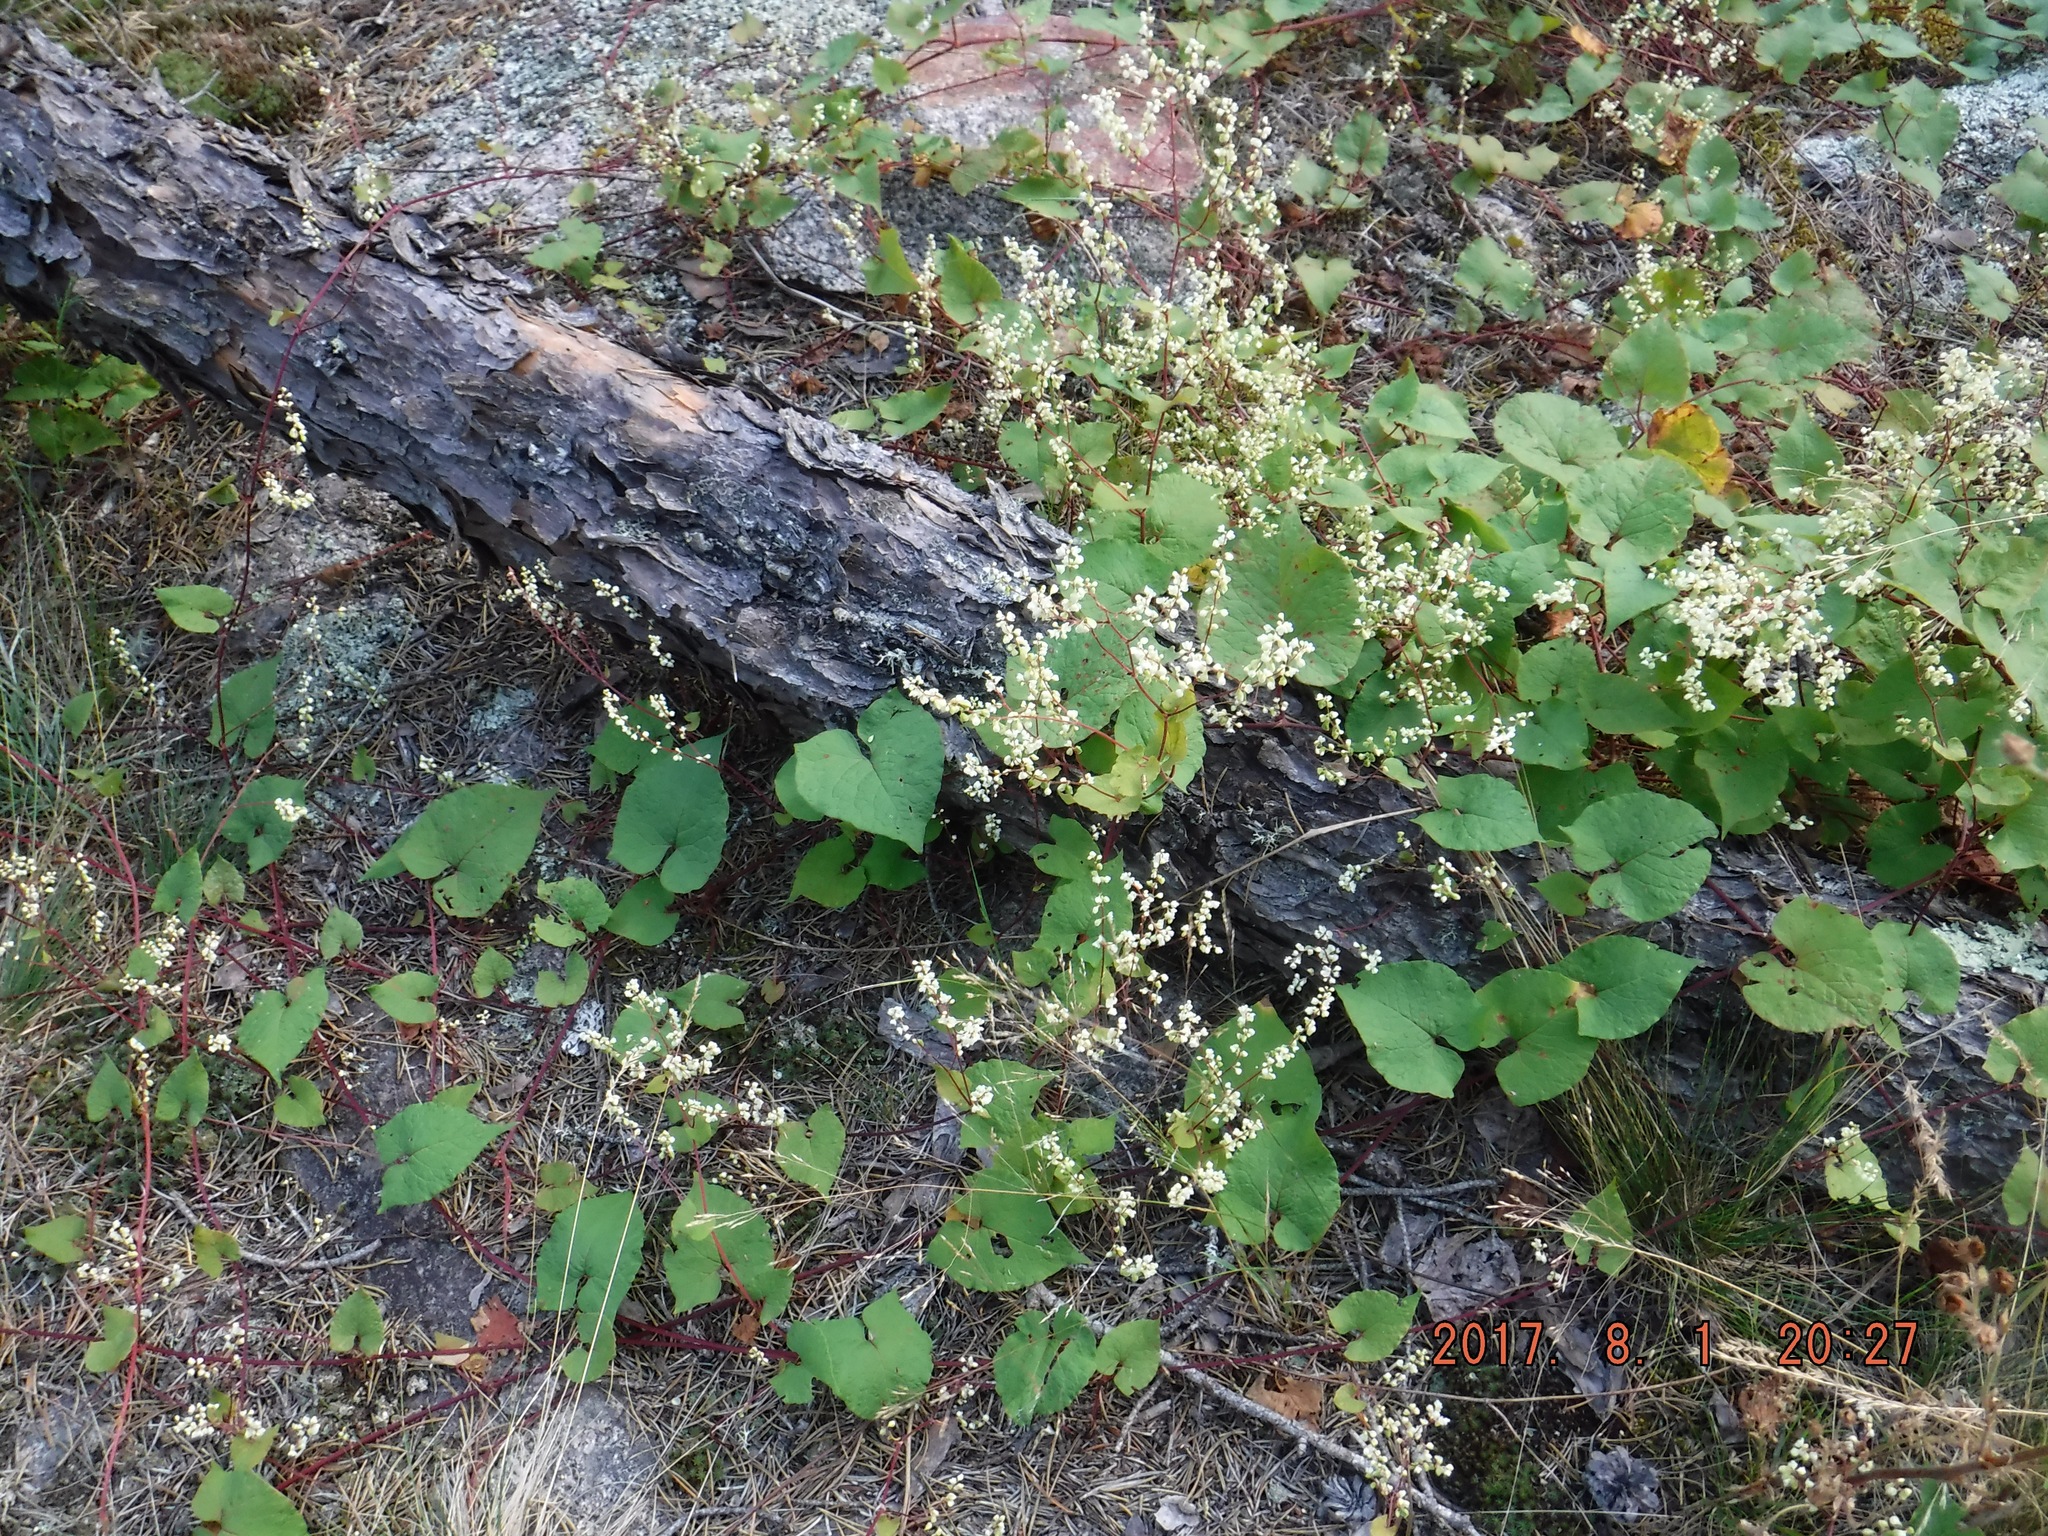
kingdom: Plantae
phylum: Tracheophyta
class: Magnoliopsida
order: Caryophyllales
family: Polygonaceae
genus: Parogonum
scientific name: Parogonum ciliinode
